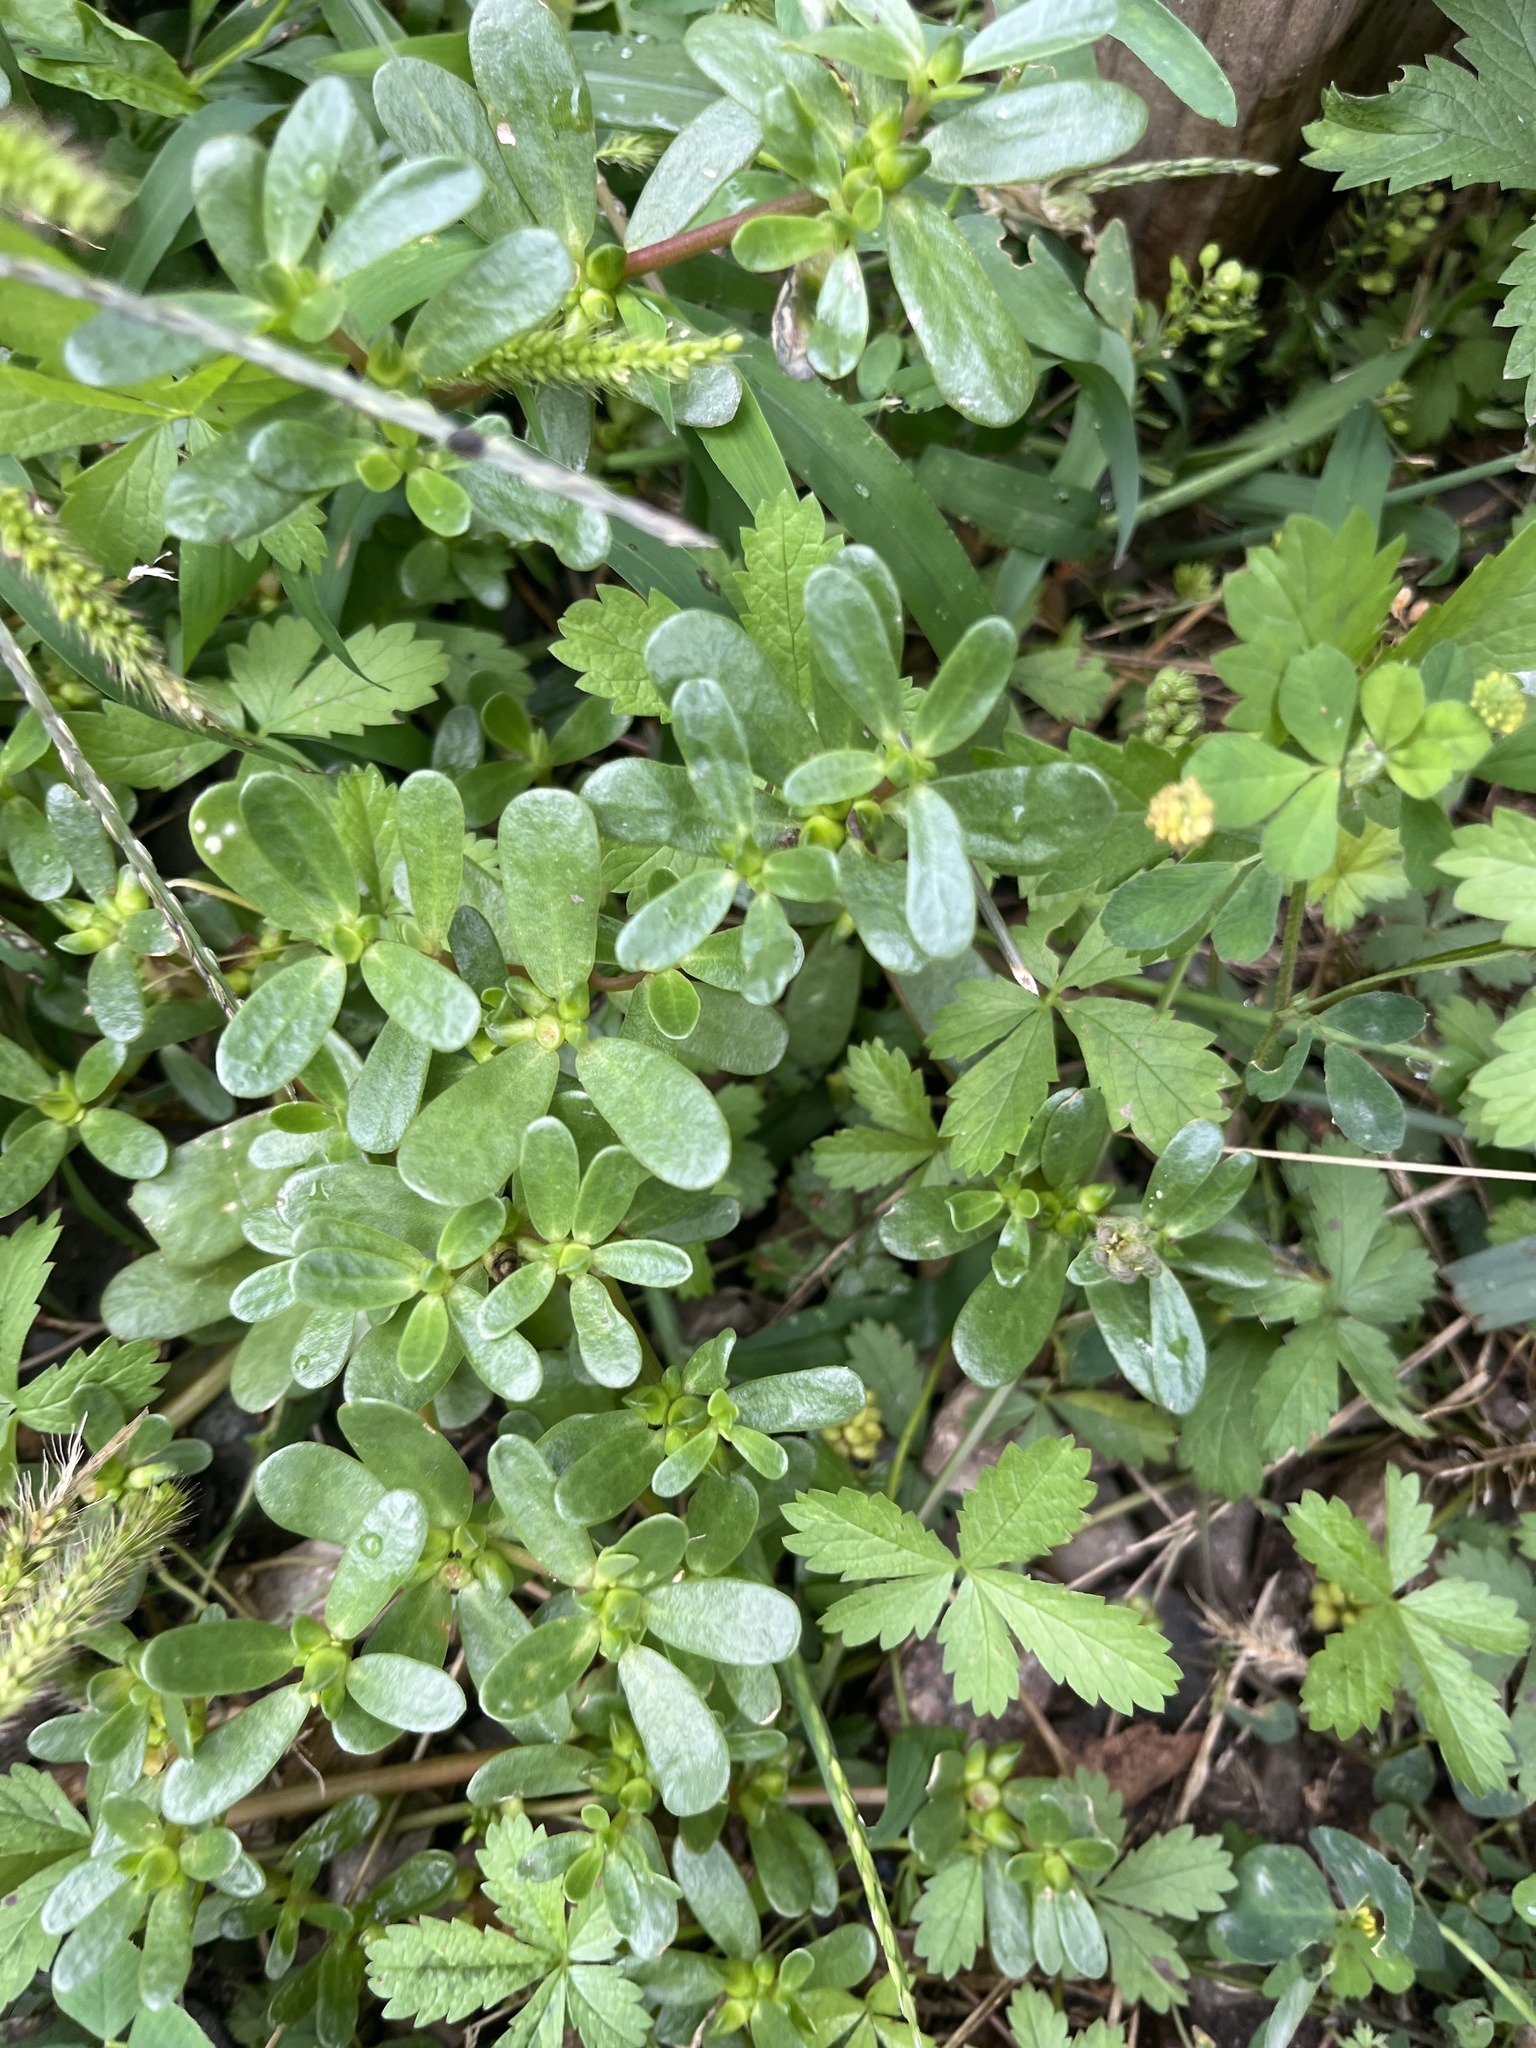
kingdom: Plantae
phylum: Tracheophyta
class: Magnoliopsida
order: Caryophyllales
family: Portulacaceae
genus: Portulaca
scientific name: Portulaca oleracea
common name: Common purslane
